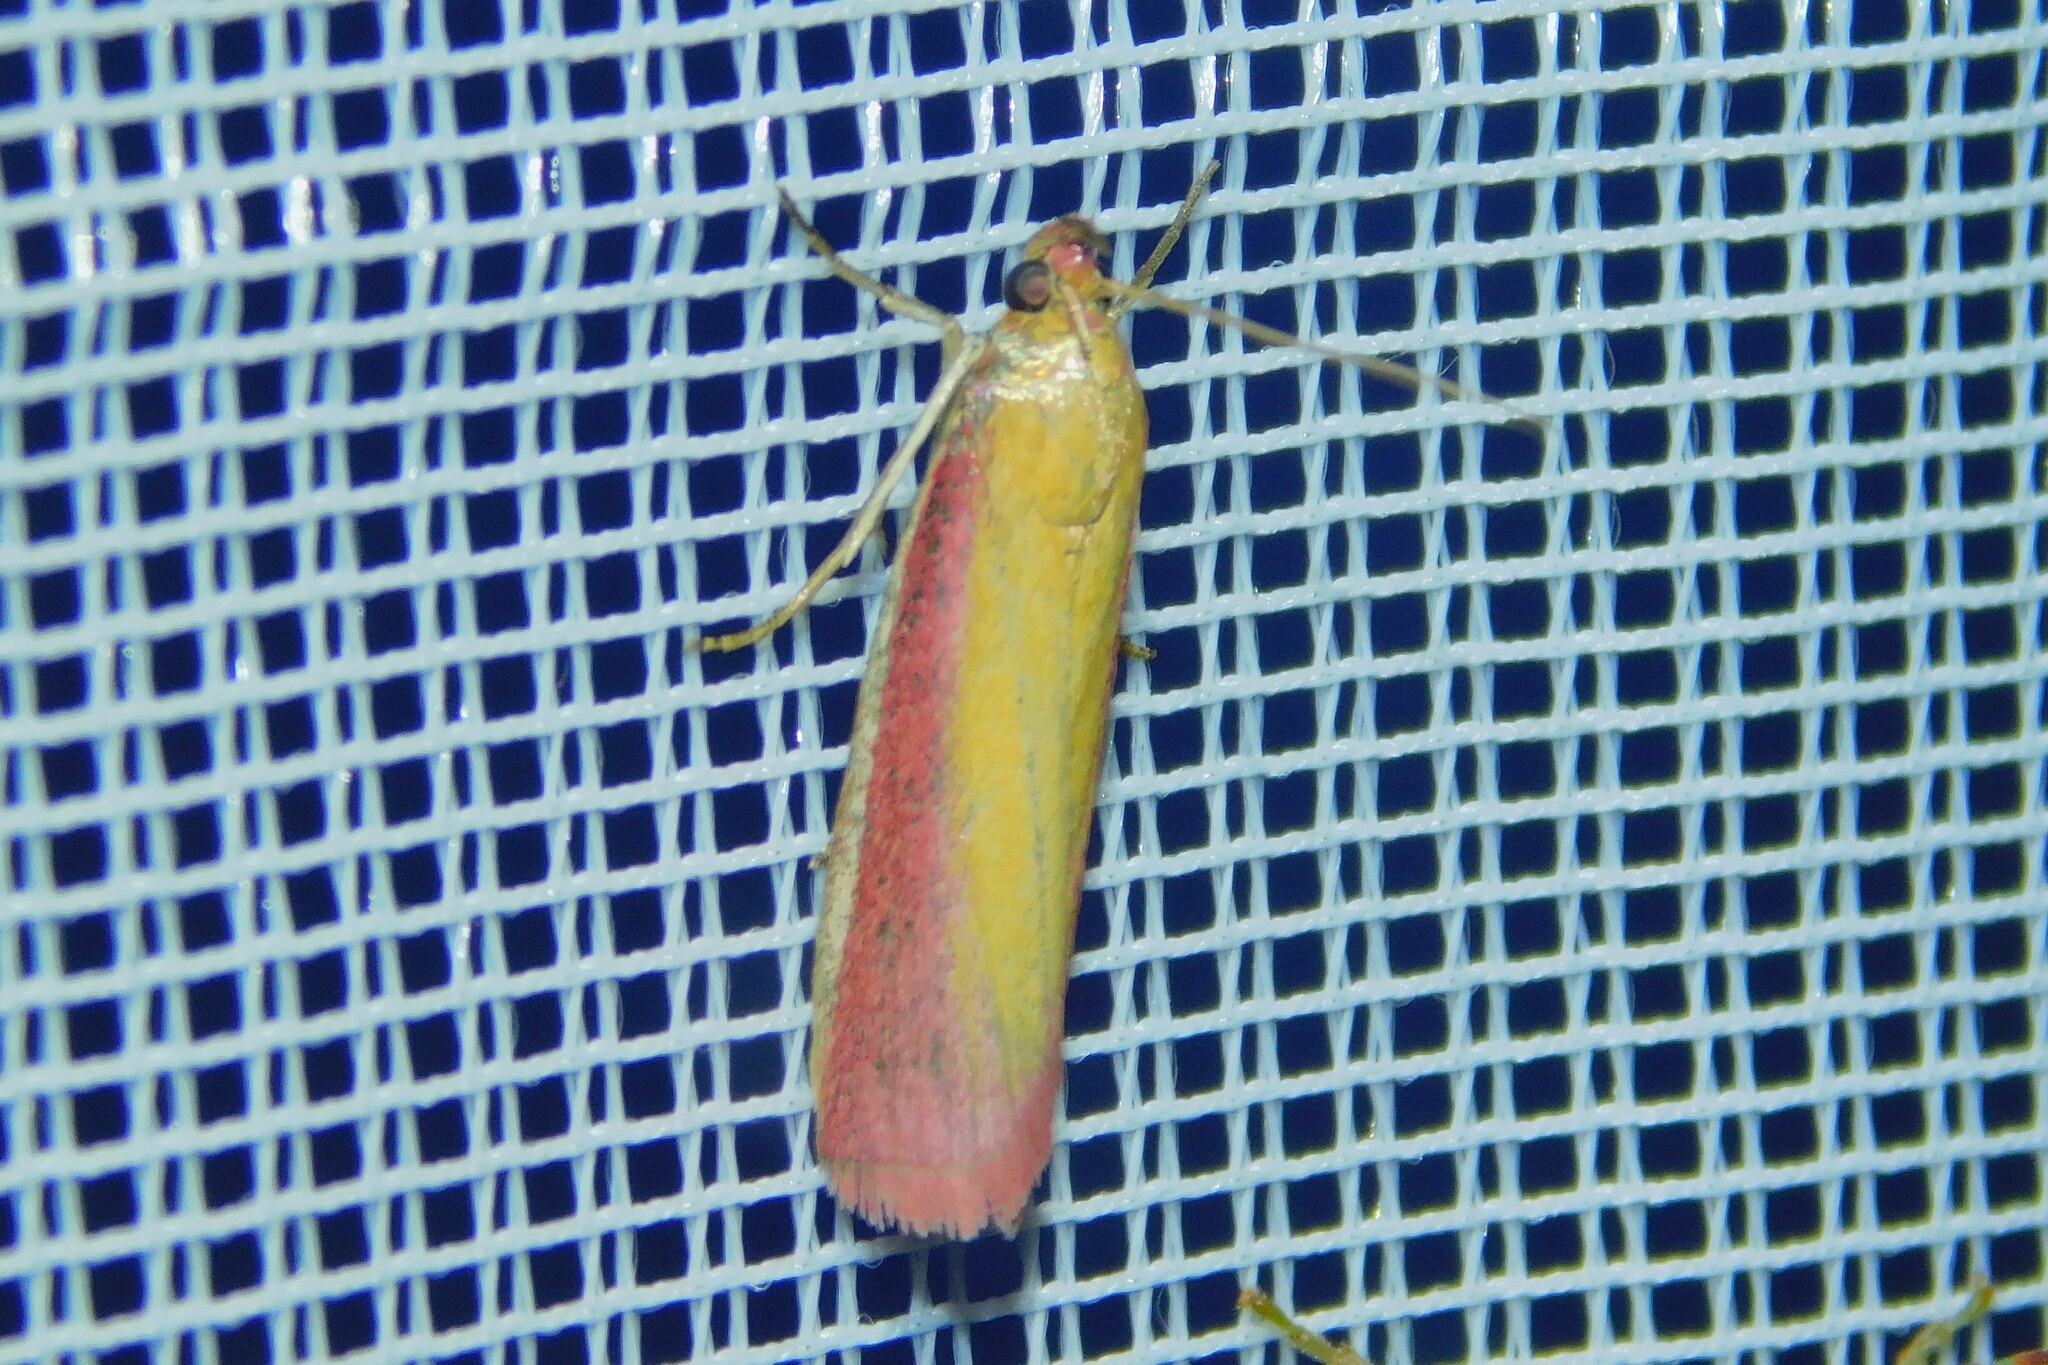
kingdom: Animalia
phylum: Arthropoda
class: Insecta
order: Lepidoptera
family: Pyralidae
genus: Oncocera
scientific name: Oncocera semirubella
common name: Rosy-striped knot-horn
